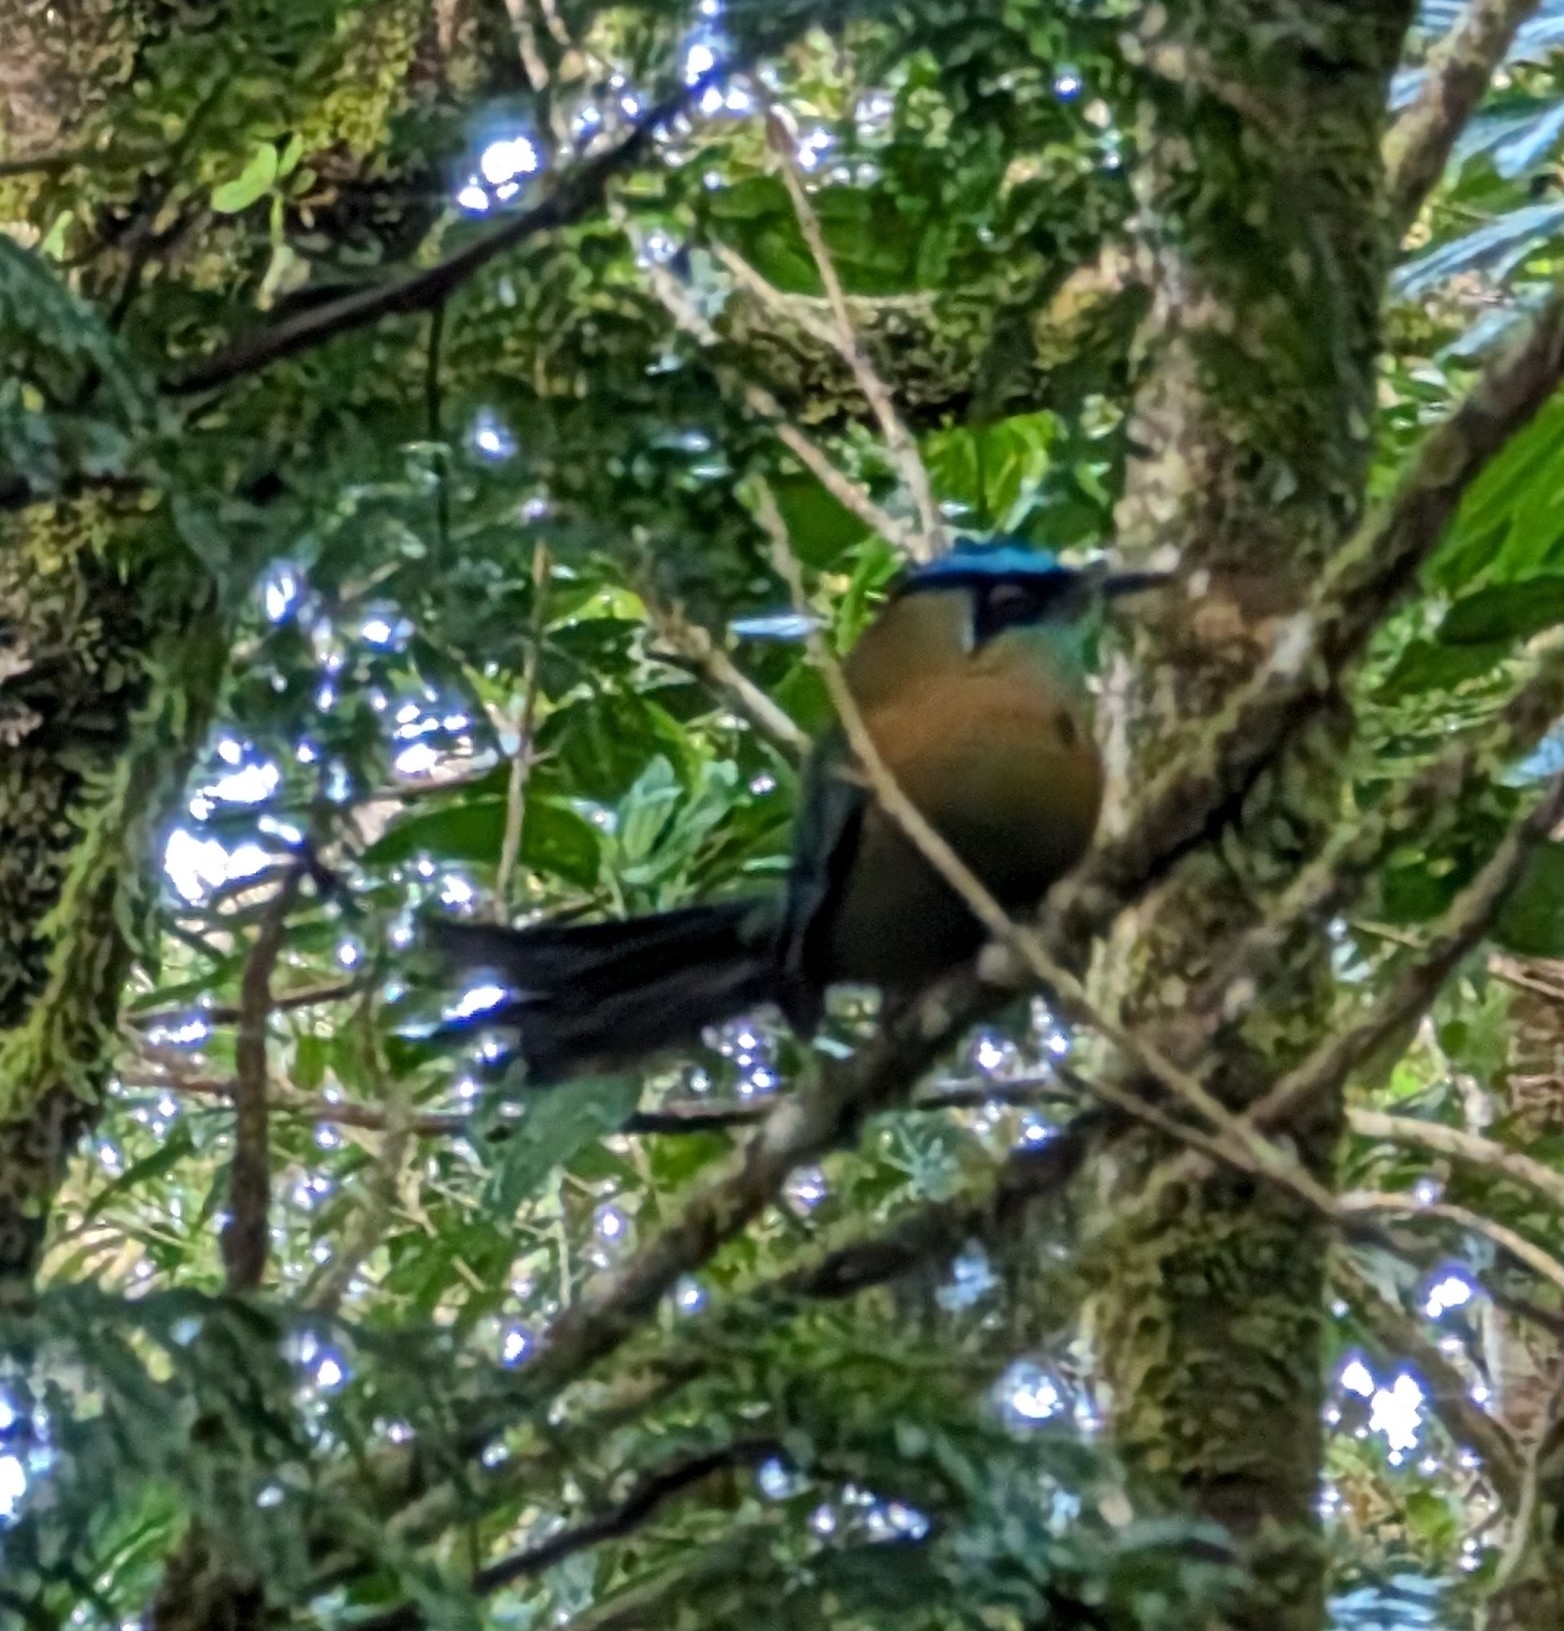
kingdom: Animalia
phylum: Chordata
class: Aves
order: Coraciiformes
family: Momotidae
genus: Momotus
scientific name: Momotus lessonii
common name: Lesson's motmot
